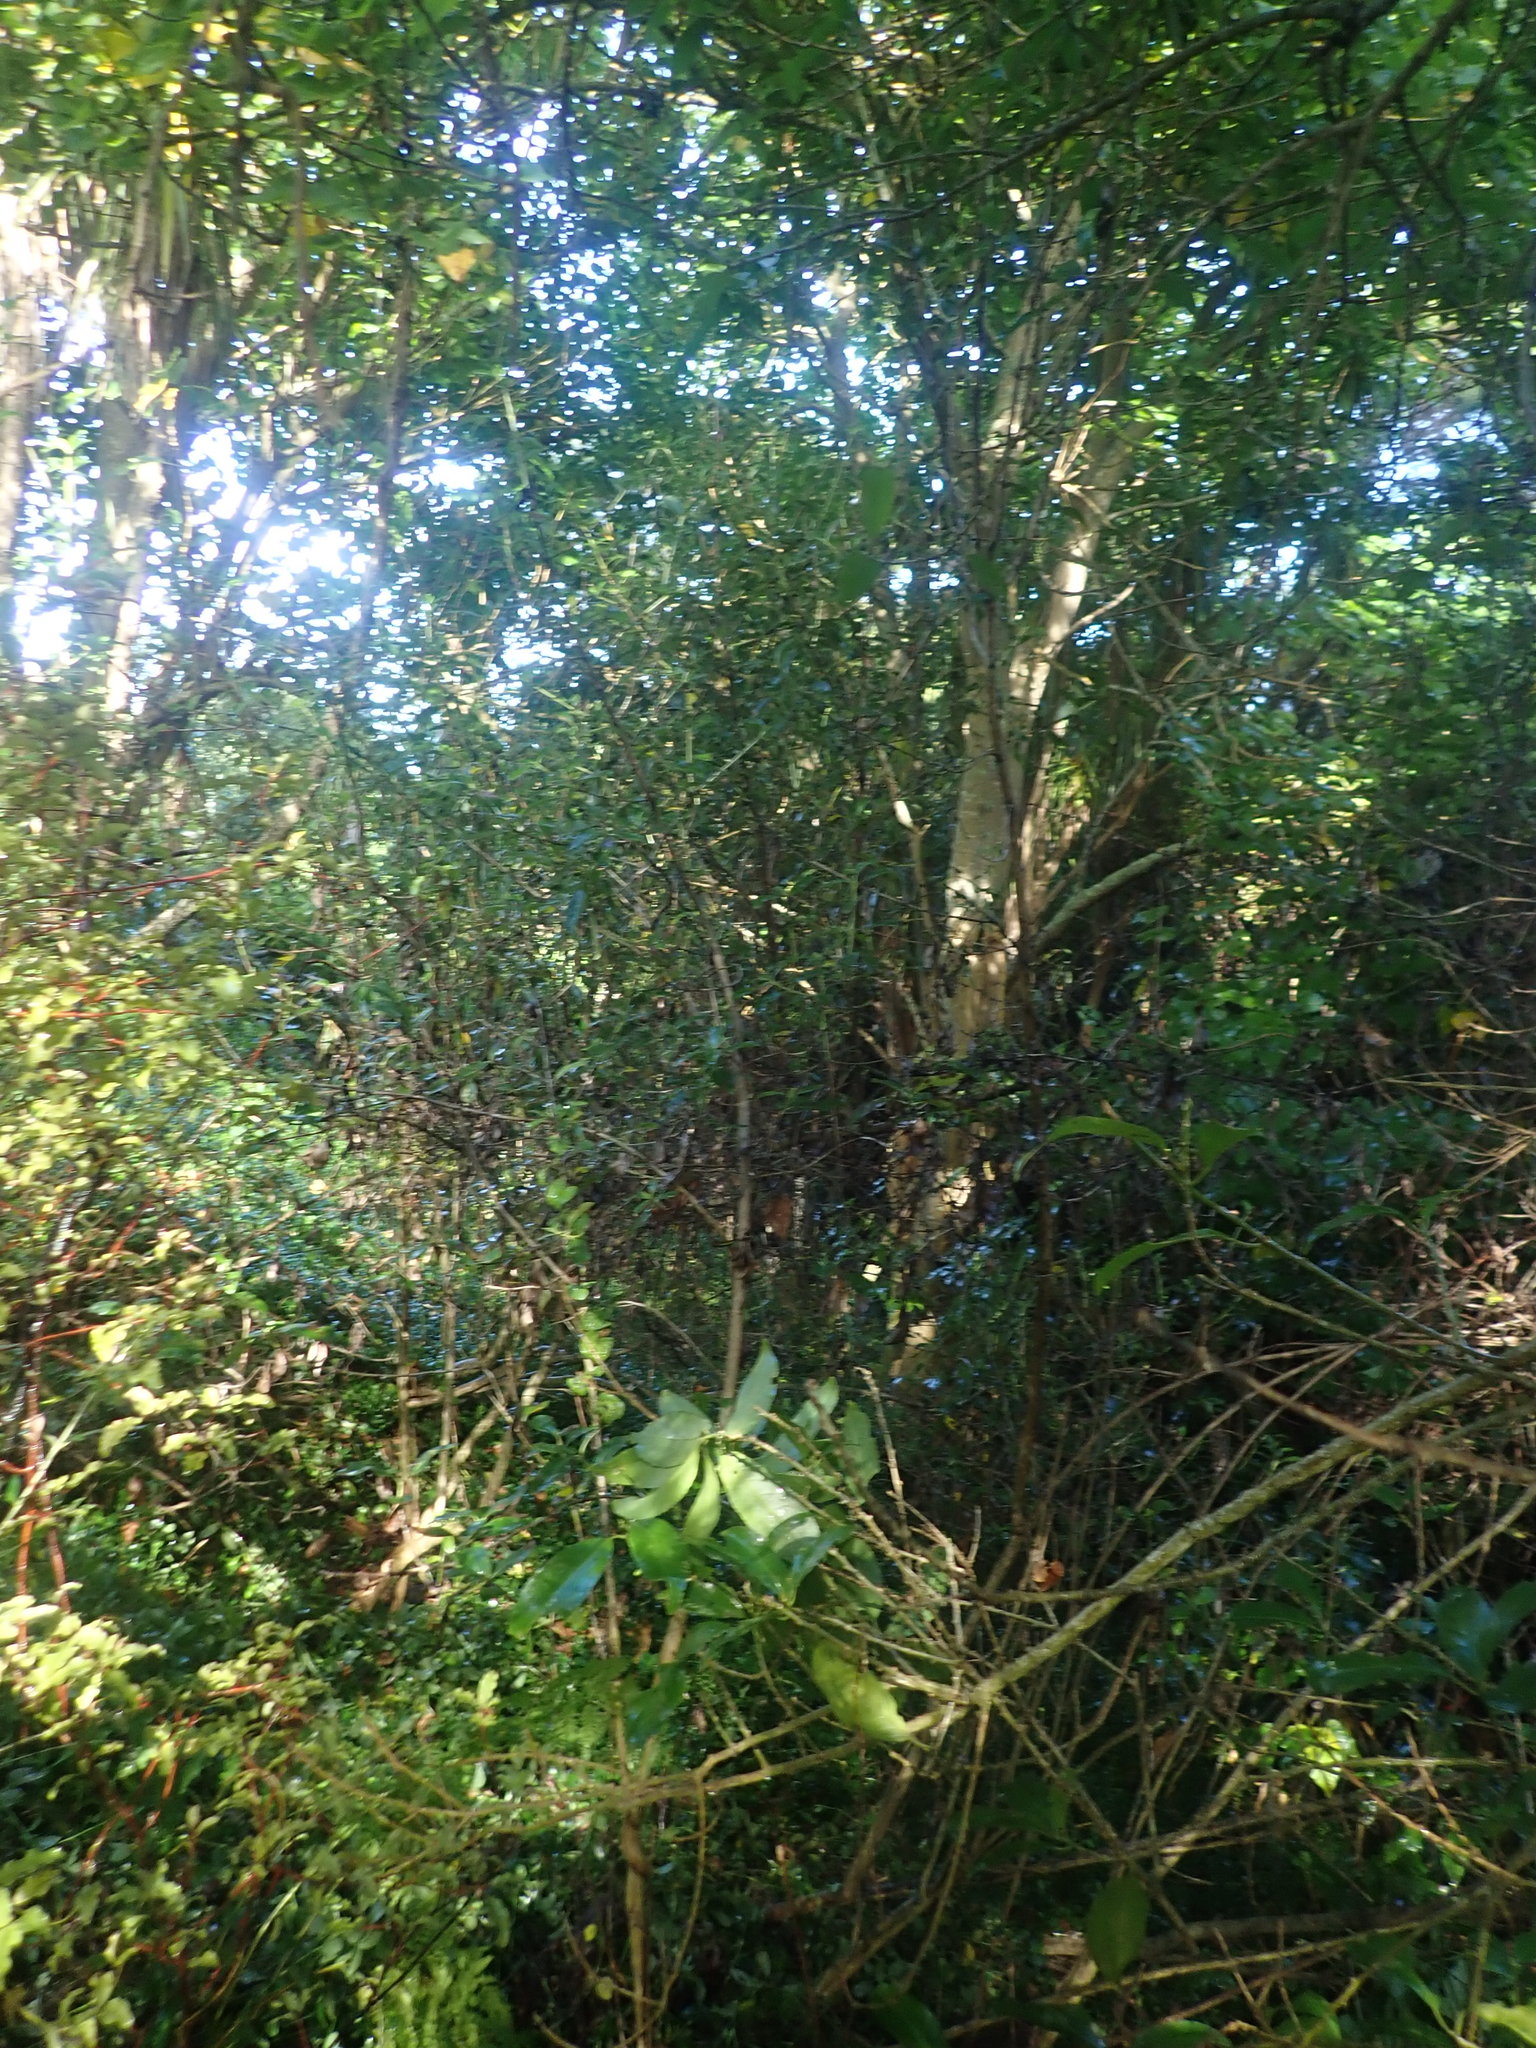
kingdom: Plantae
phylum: Tracheophyta
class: Magnoliopsida
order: Malpighiales
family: Violaceae
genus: Melicytus
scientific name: Melicytus ramiflorus
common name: Mahoe
